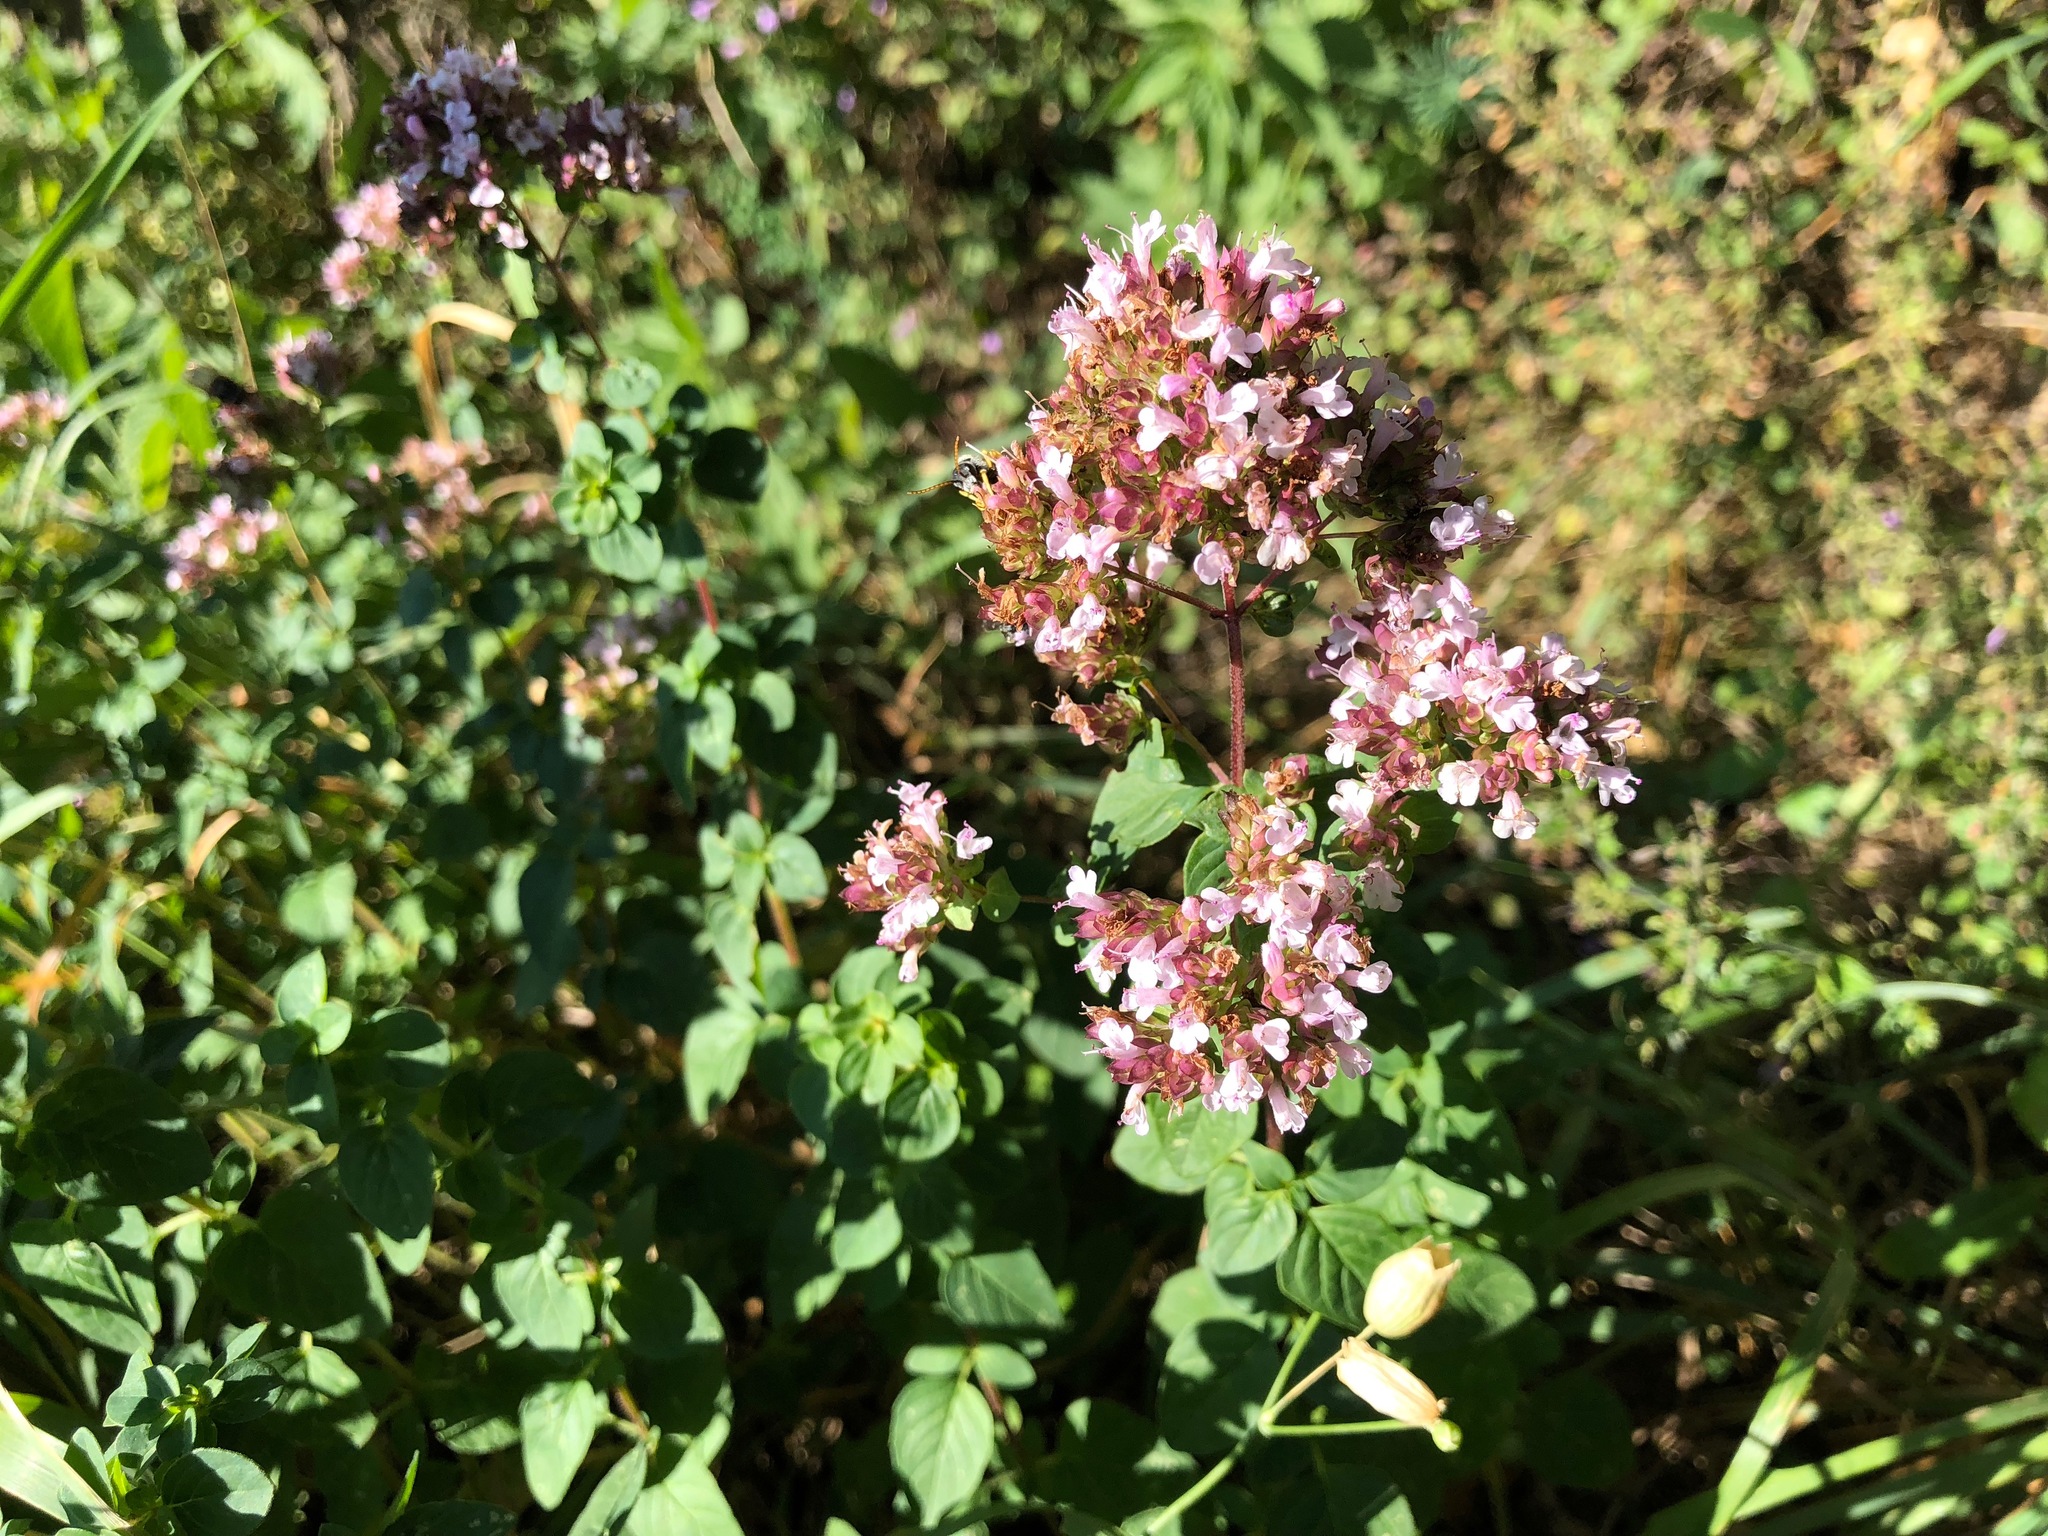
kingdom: Plantae
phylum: Tracheophyta
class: Magnoliopsida
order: Lamiales
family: Lamiaceae
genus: Origanum
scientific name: Origanum vulgare
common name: Wild marjoram
